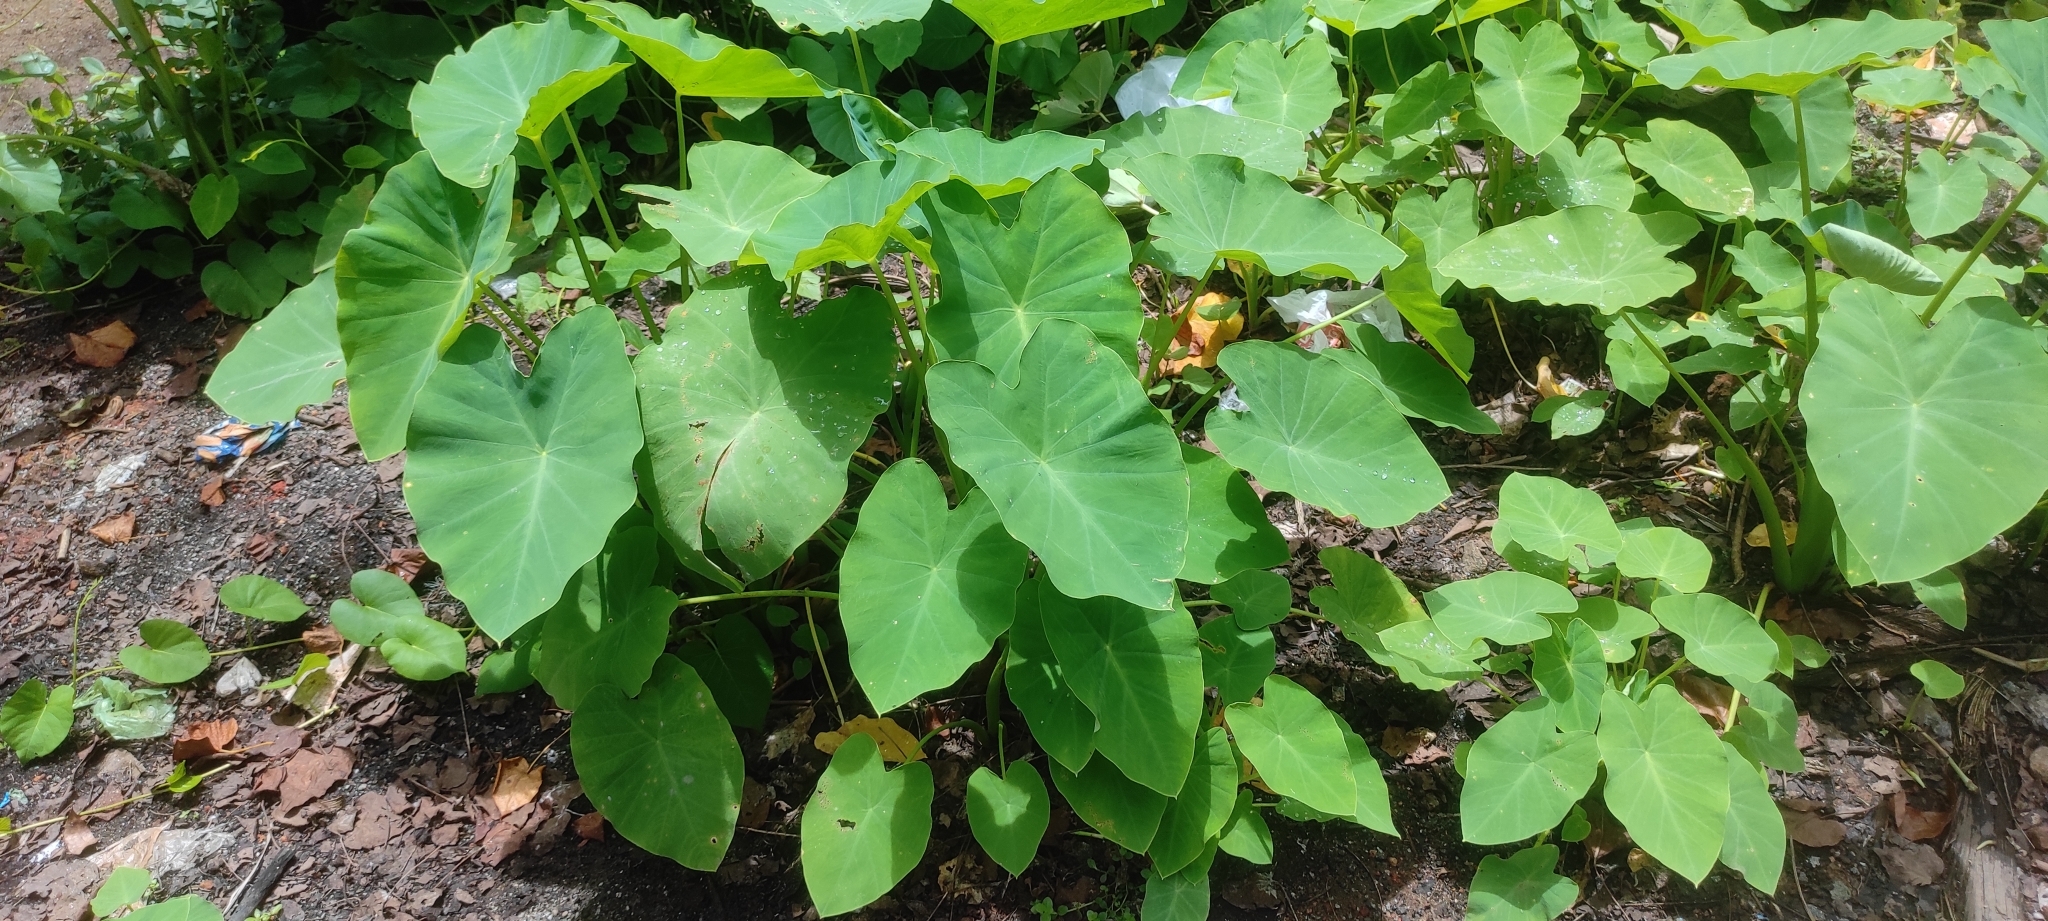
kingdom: Plantae
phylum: Tracheophyta
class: Liliopsida
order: Alismatales
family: Araceae
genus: Colocasia
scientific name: Colocasia esculenta
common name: Taro
